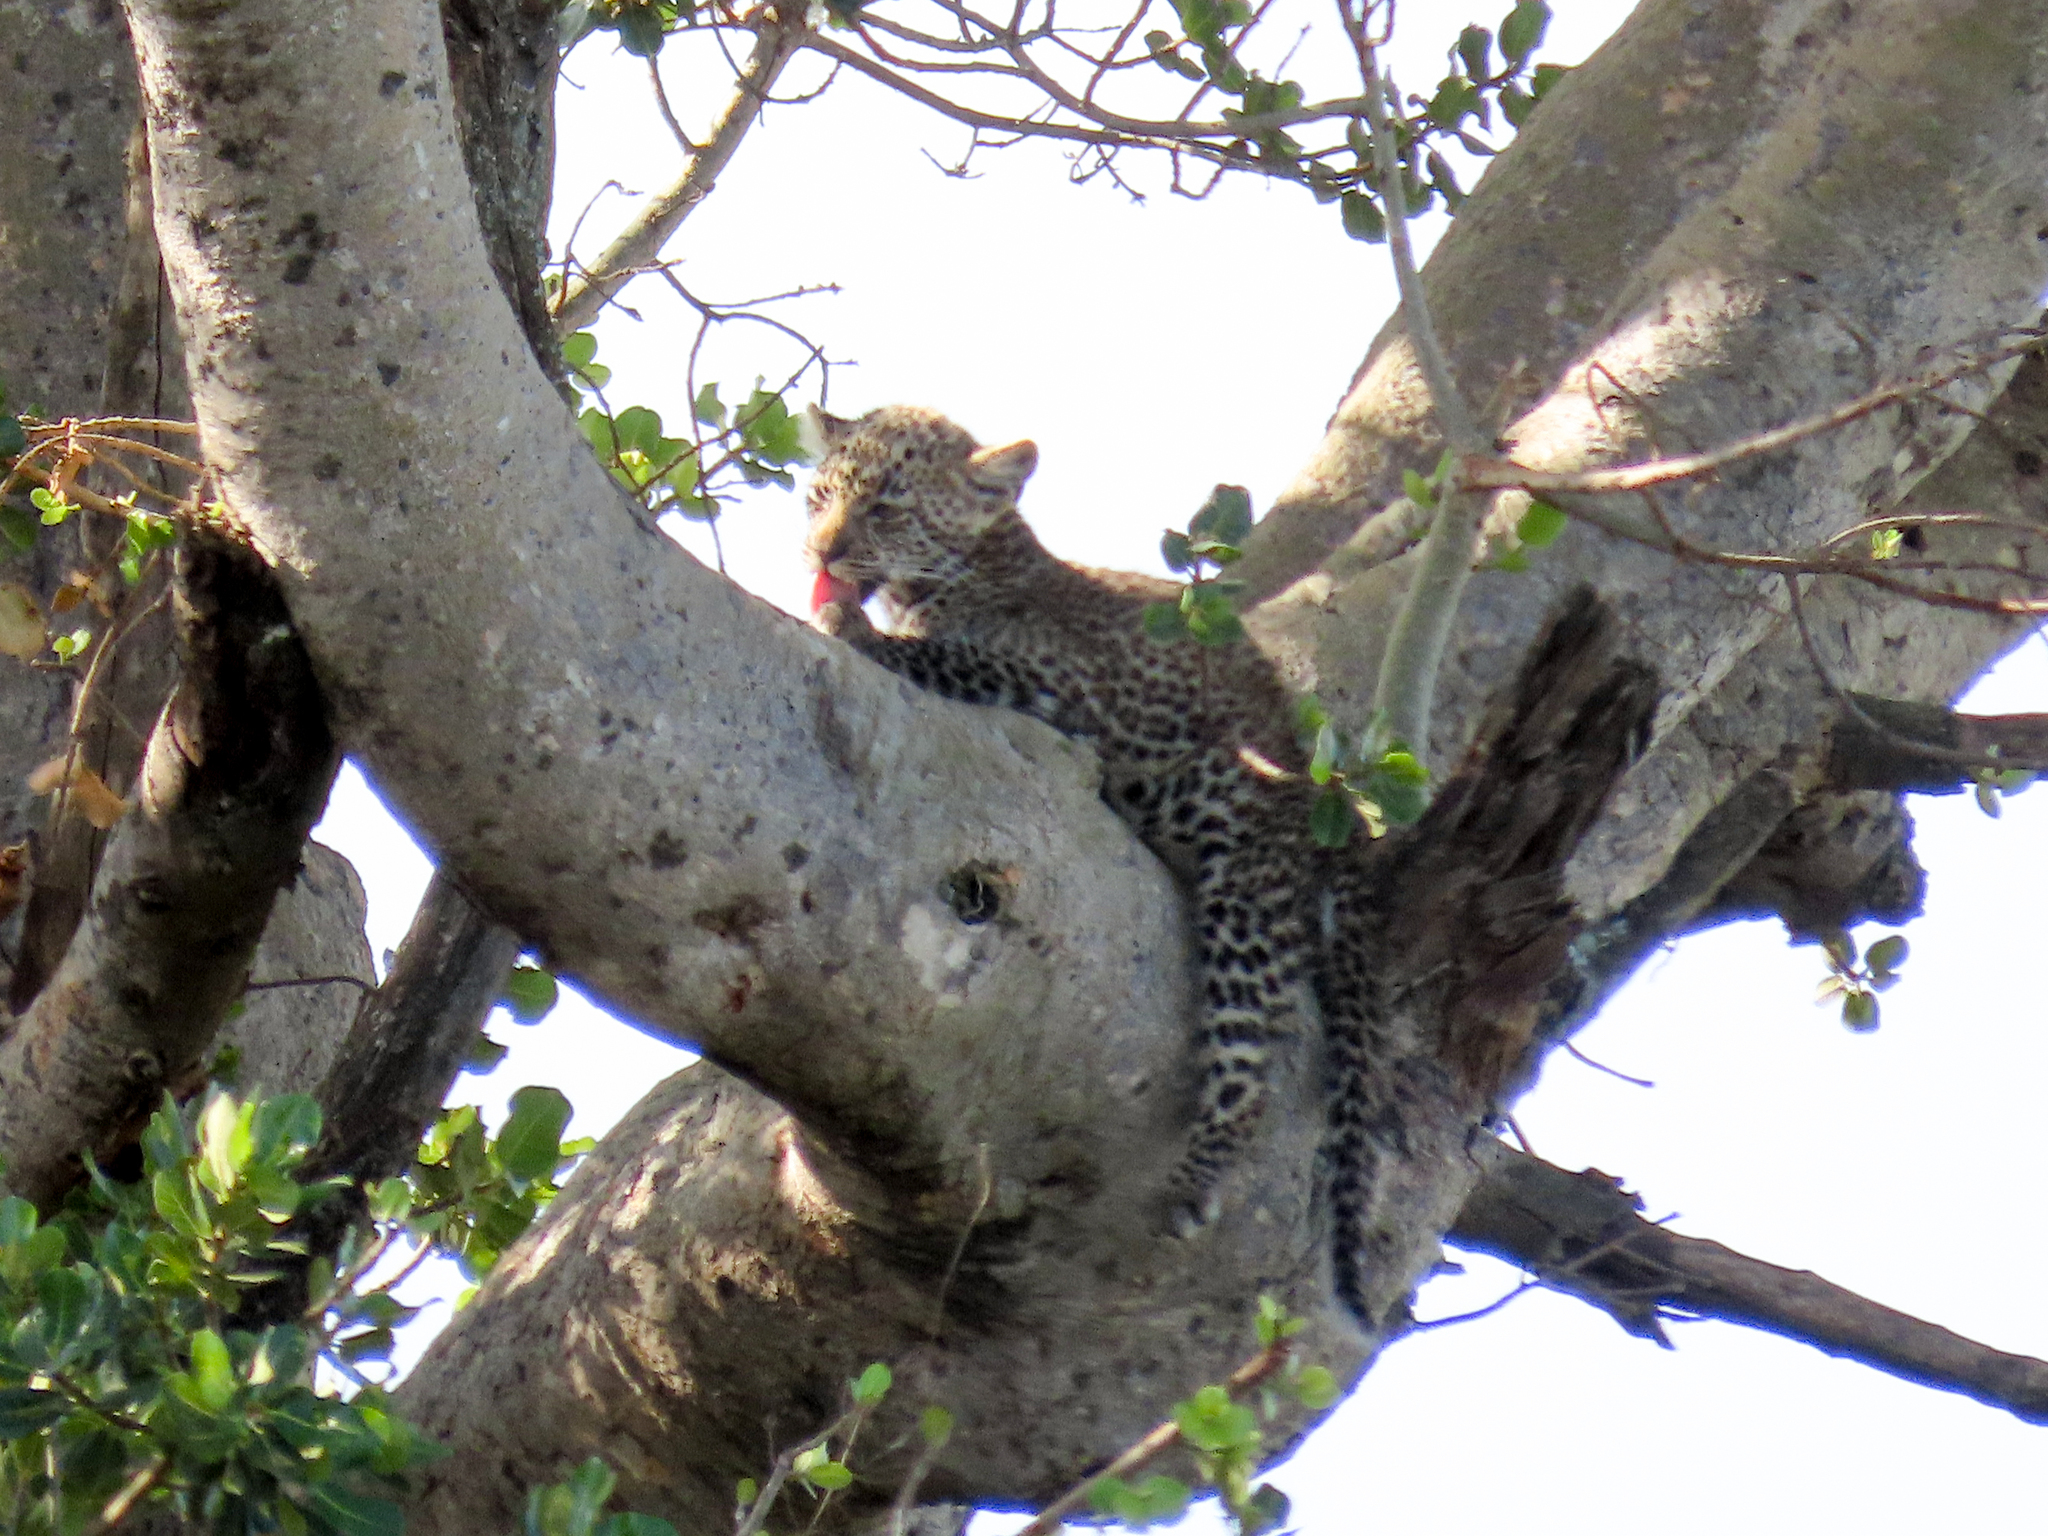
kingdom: Animalia
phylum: Chordata
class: Mammalia
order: Carnivora
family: Felidae
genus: Panthera
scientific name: Panthera pardus
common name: Leopard
